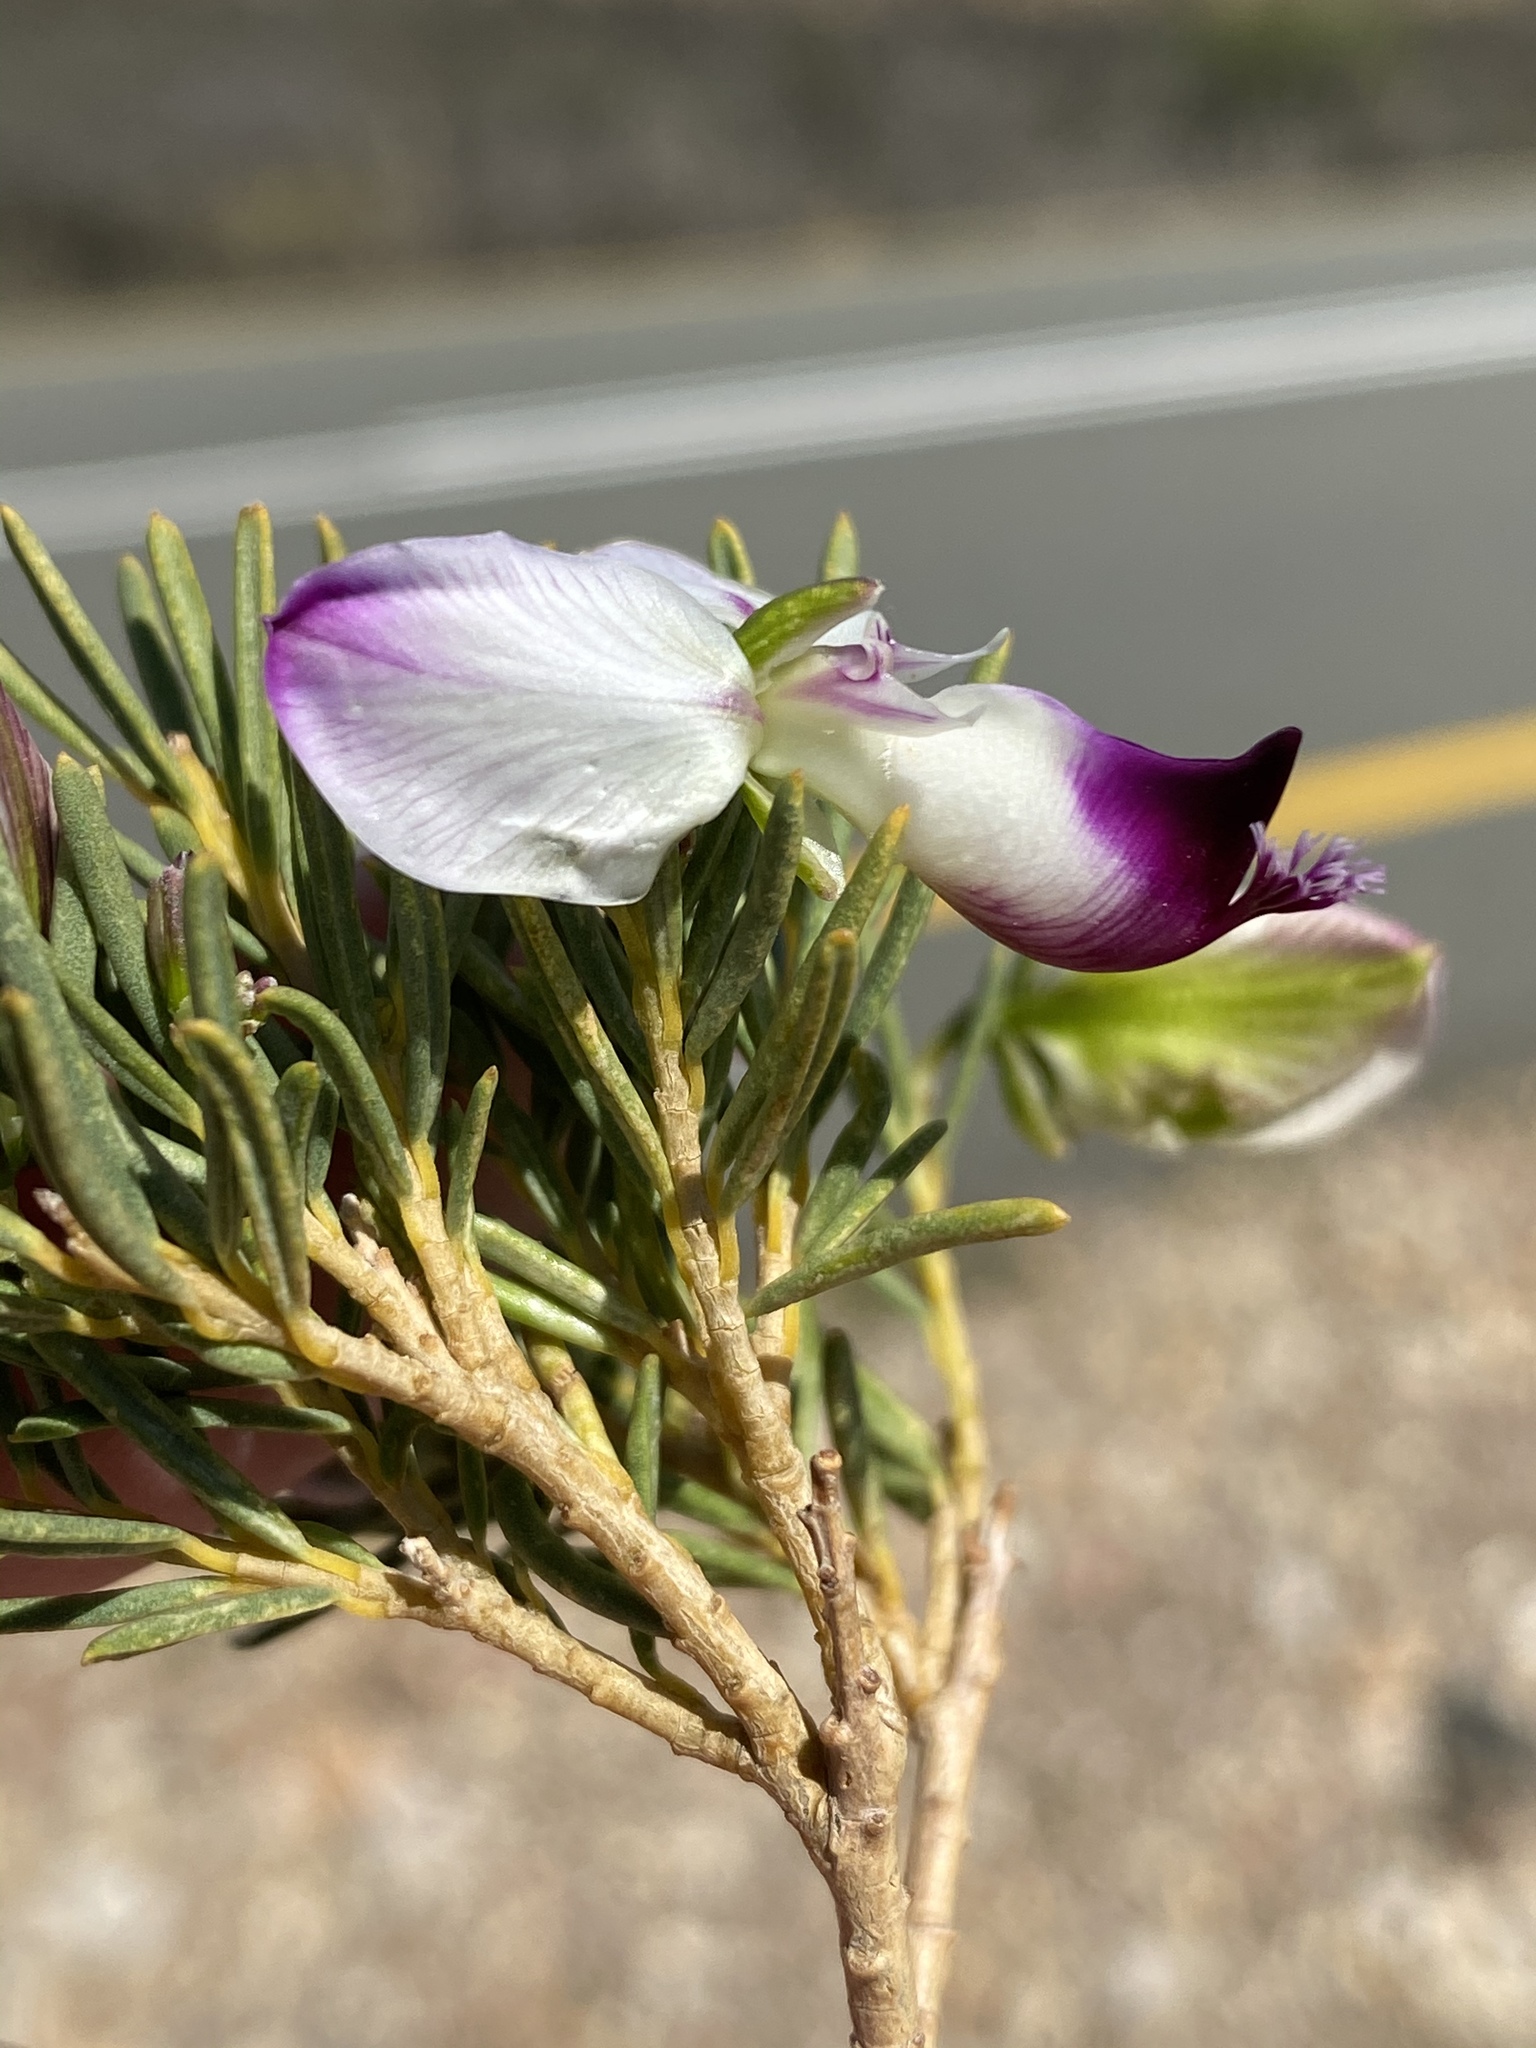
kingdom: Plantae
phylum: Tracheophyta
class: Magnoliopsida
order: Fabales
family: Polygalaceae
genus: Polygala
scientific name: Polygala myrtifolia
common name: Myrtle-leaf milkwort
